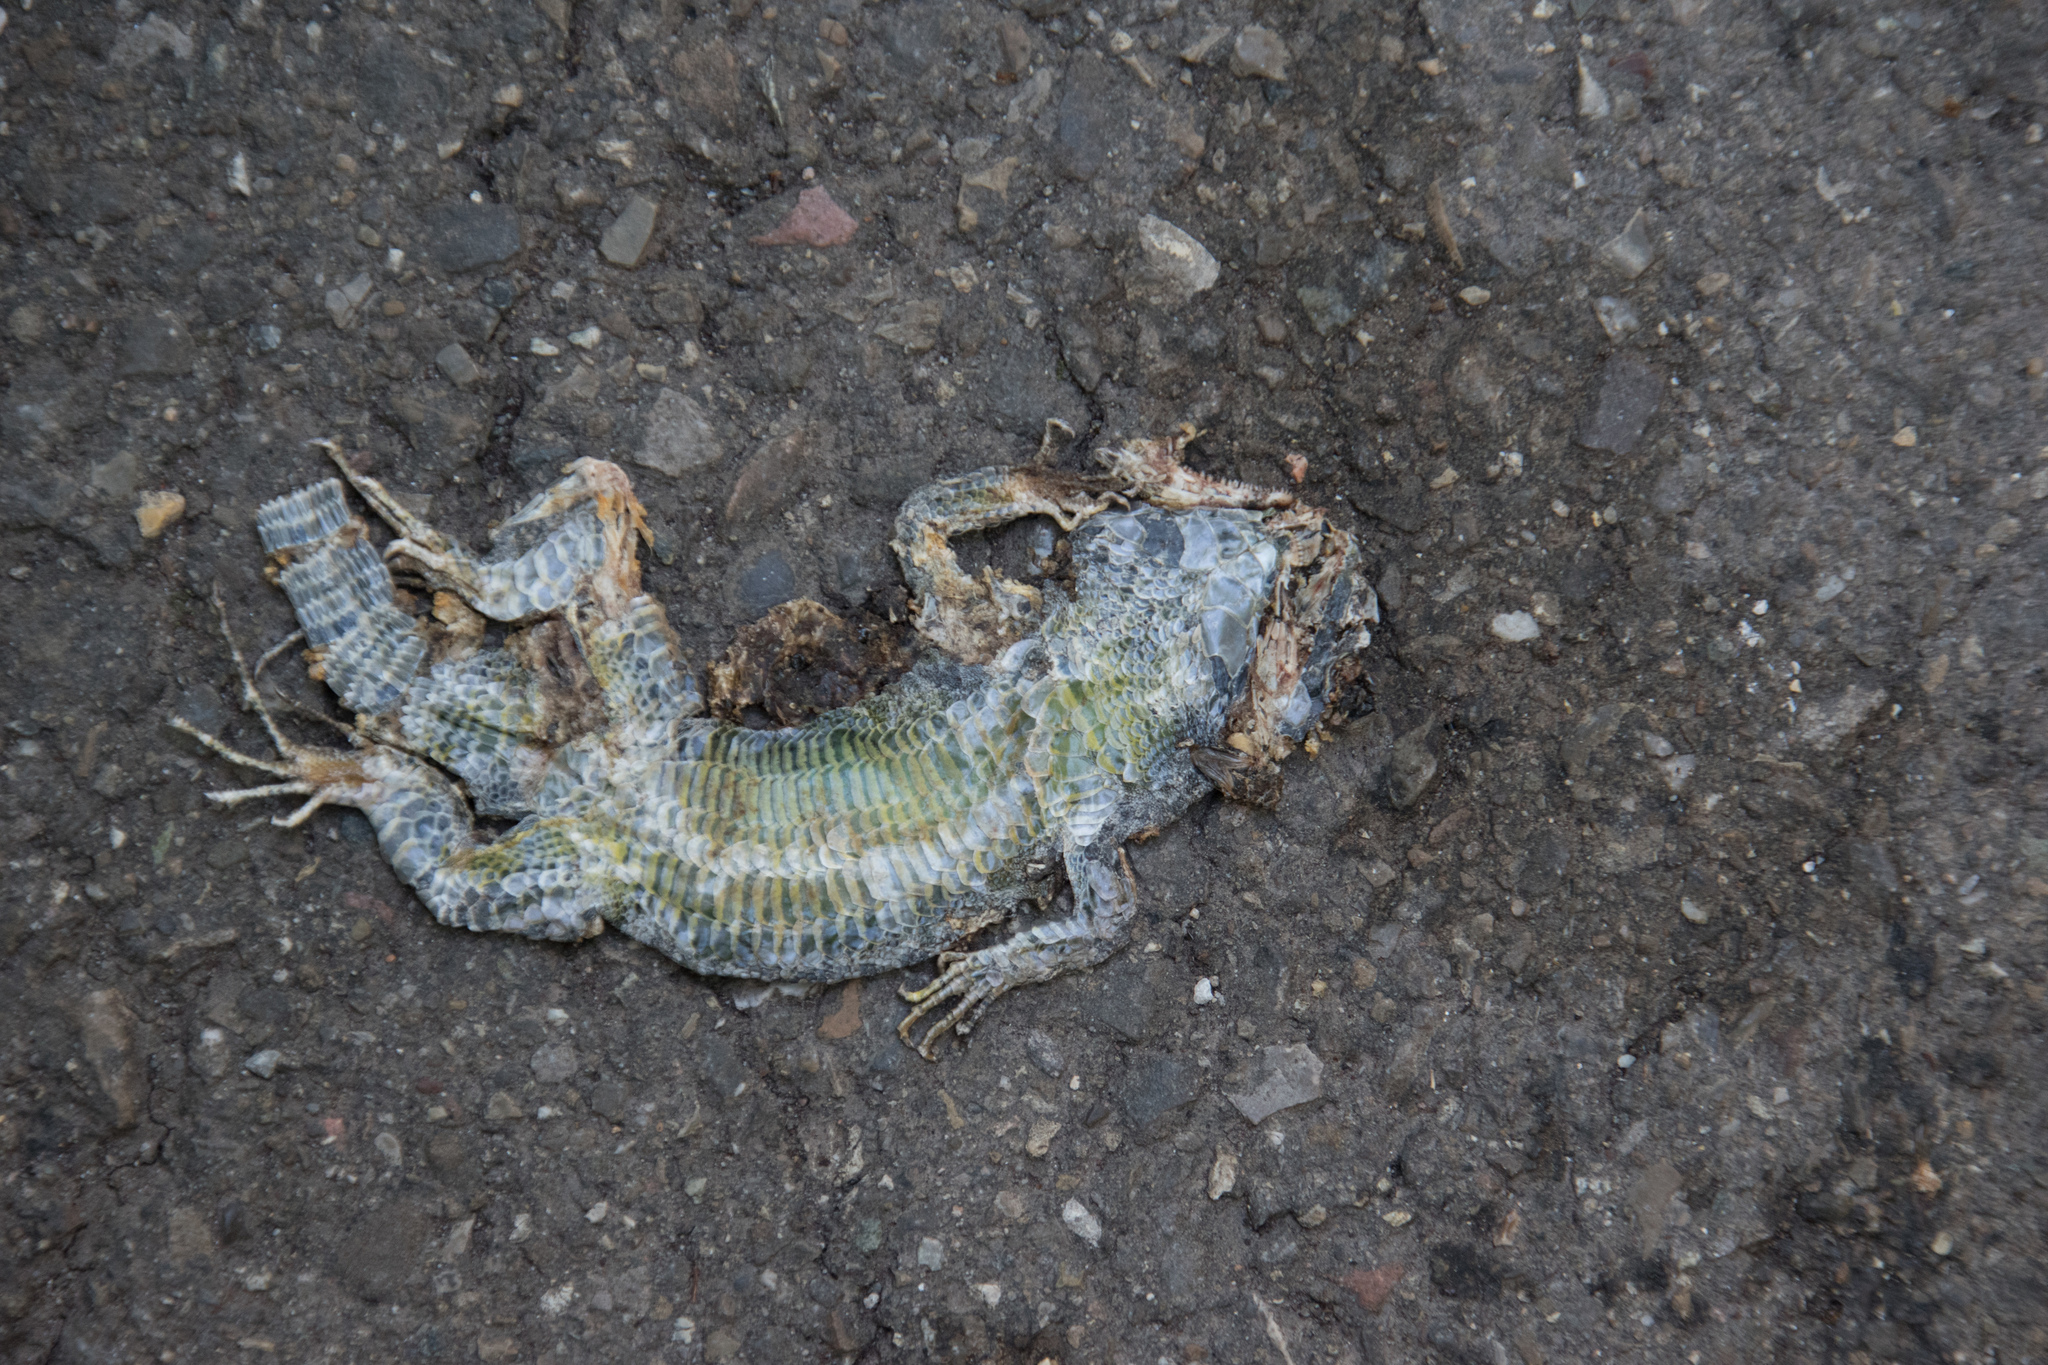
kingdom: Animalia
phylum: Chordata
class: Squamata
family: Lacertidae
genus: Lacerta
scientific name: Lacerta agilis
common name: Sand lizard
